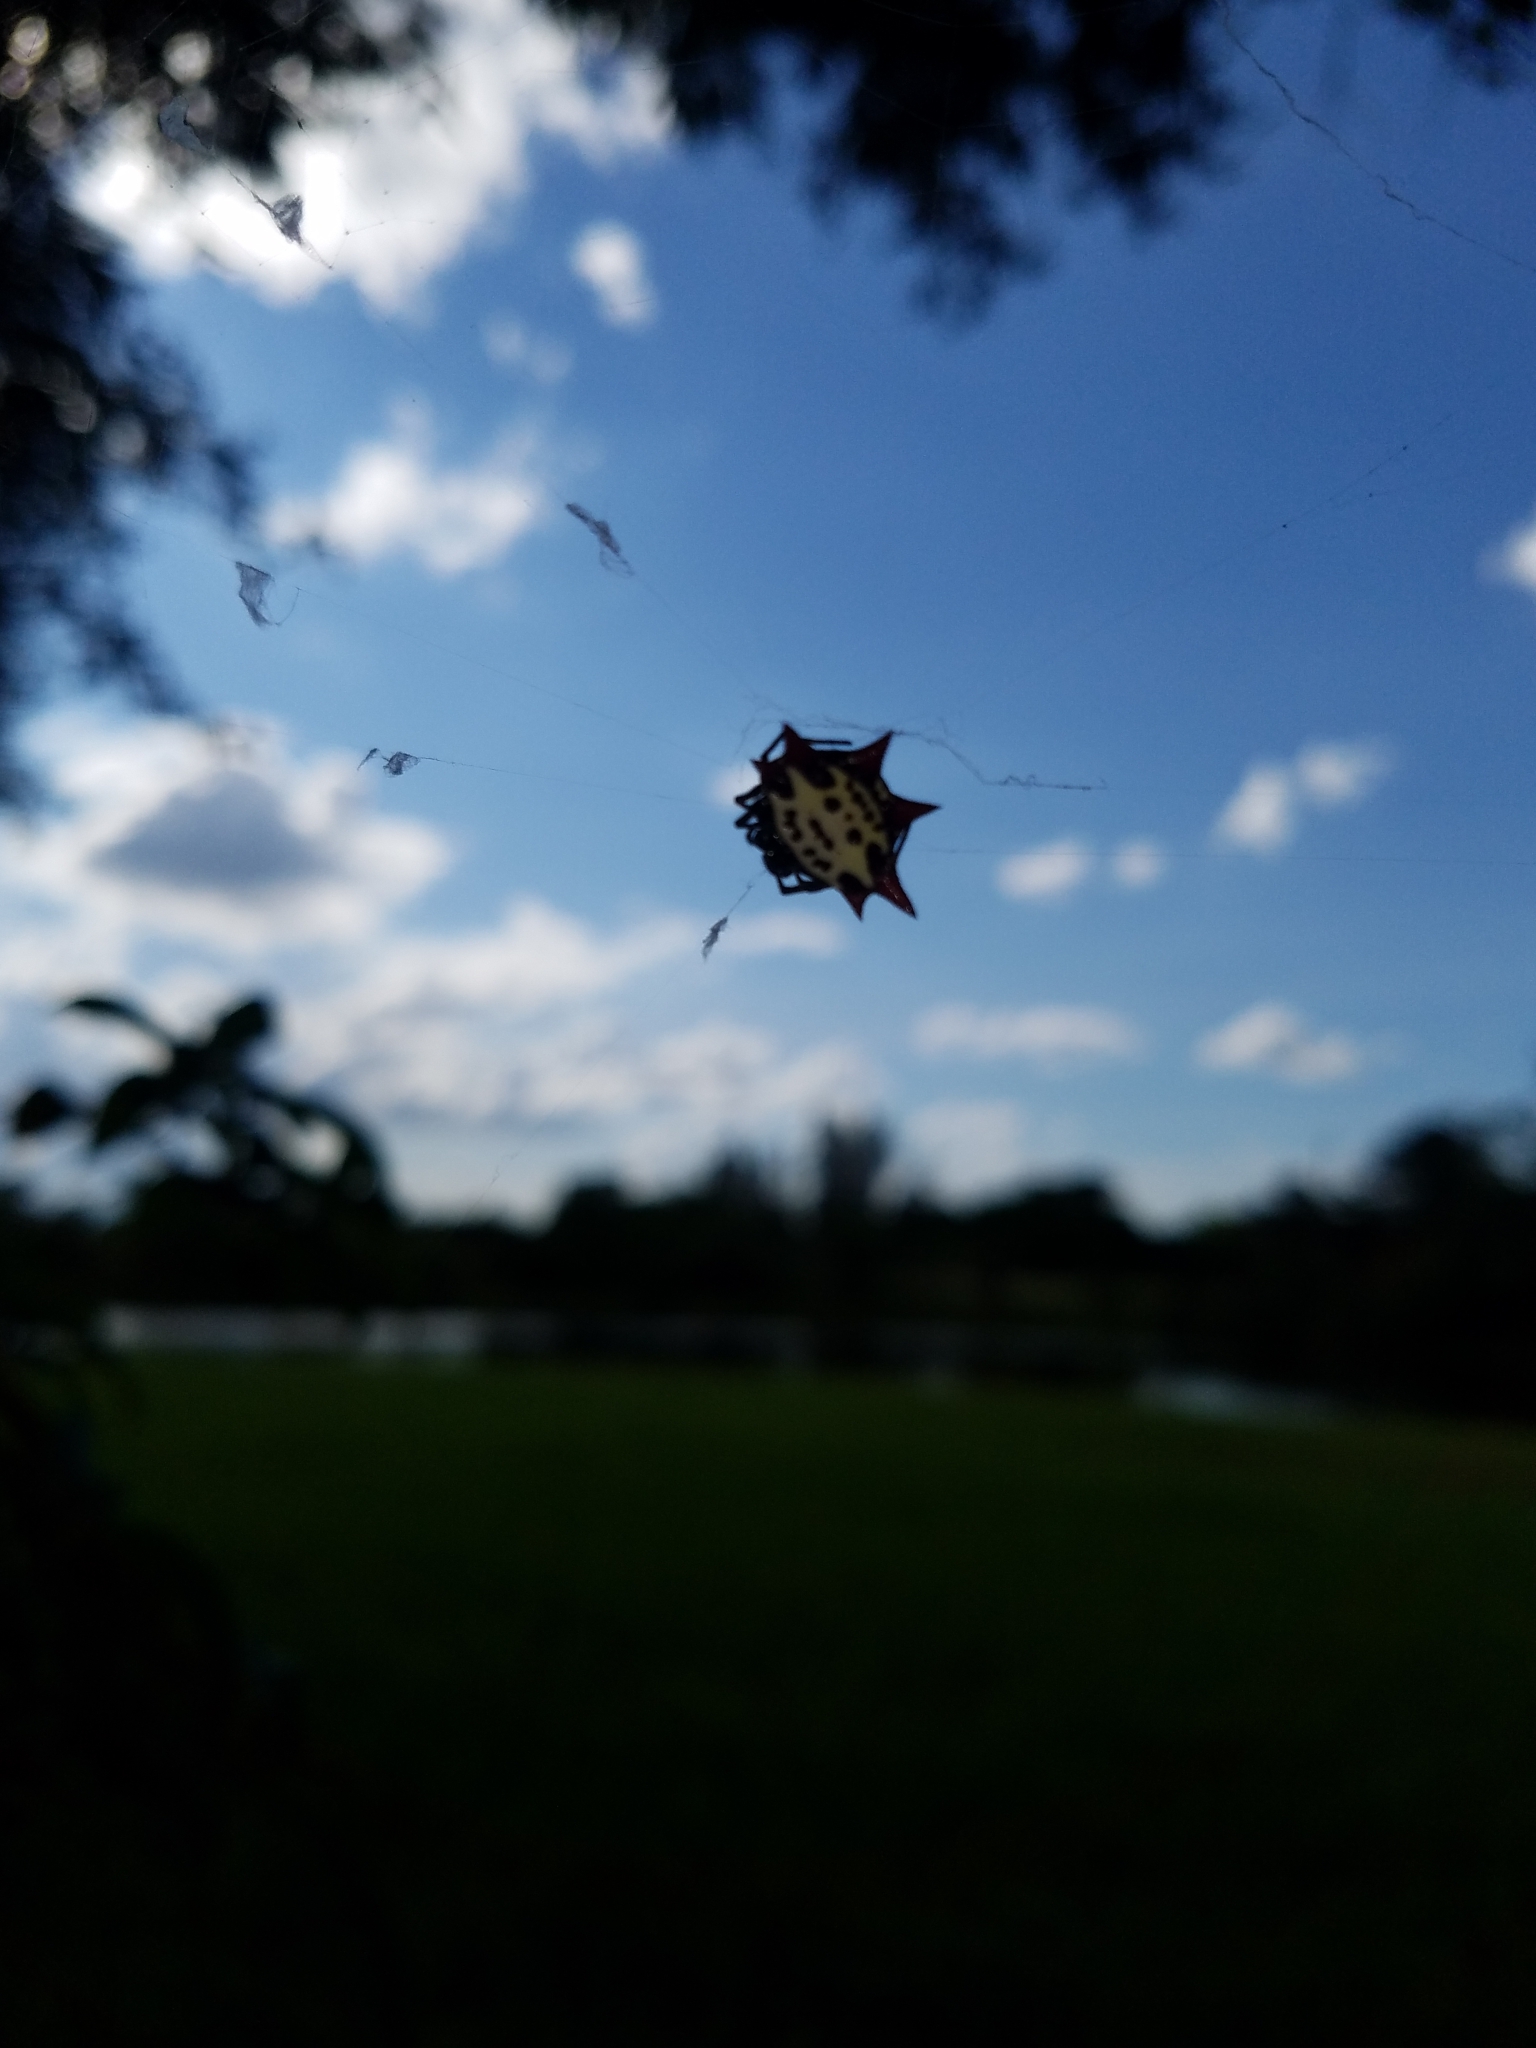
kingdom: Animalia
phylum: Arthropoda
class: Arachnida
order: Araneae
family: Araneidae
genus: Gasteracantha
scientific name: Gasteracantha cancriformis
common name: Orb weavers
